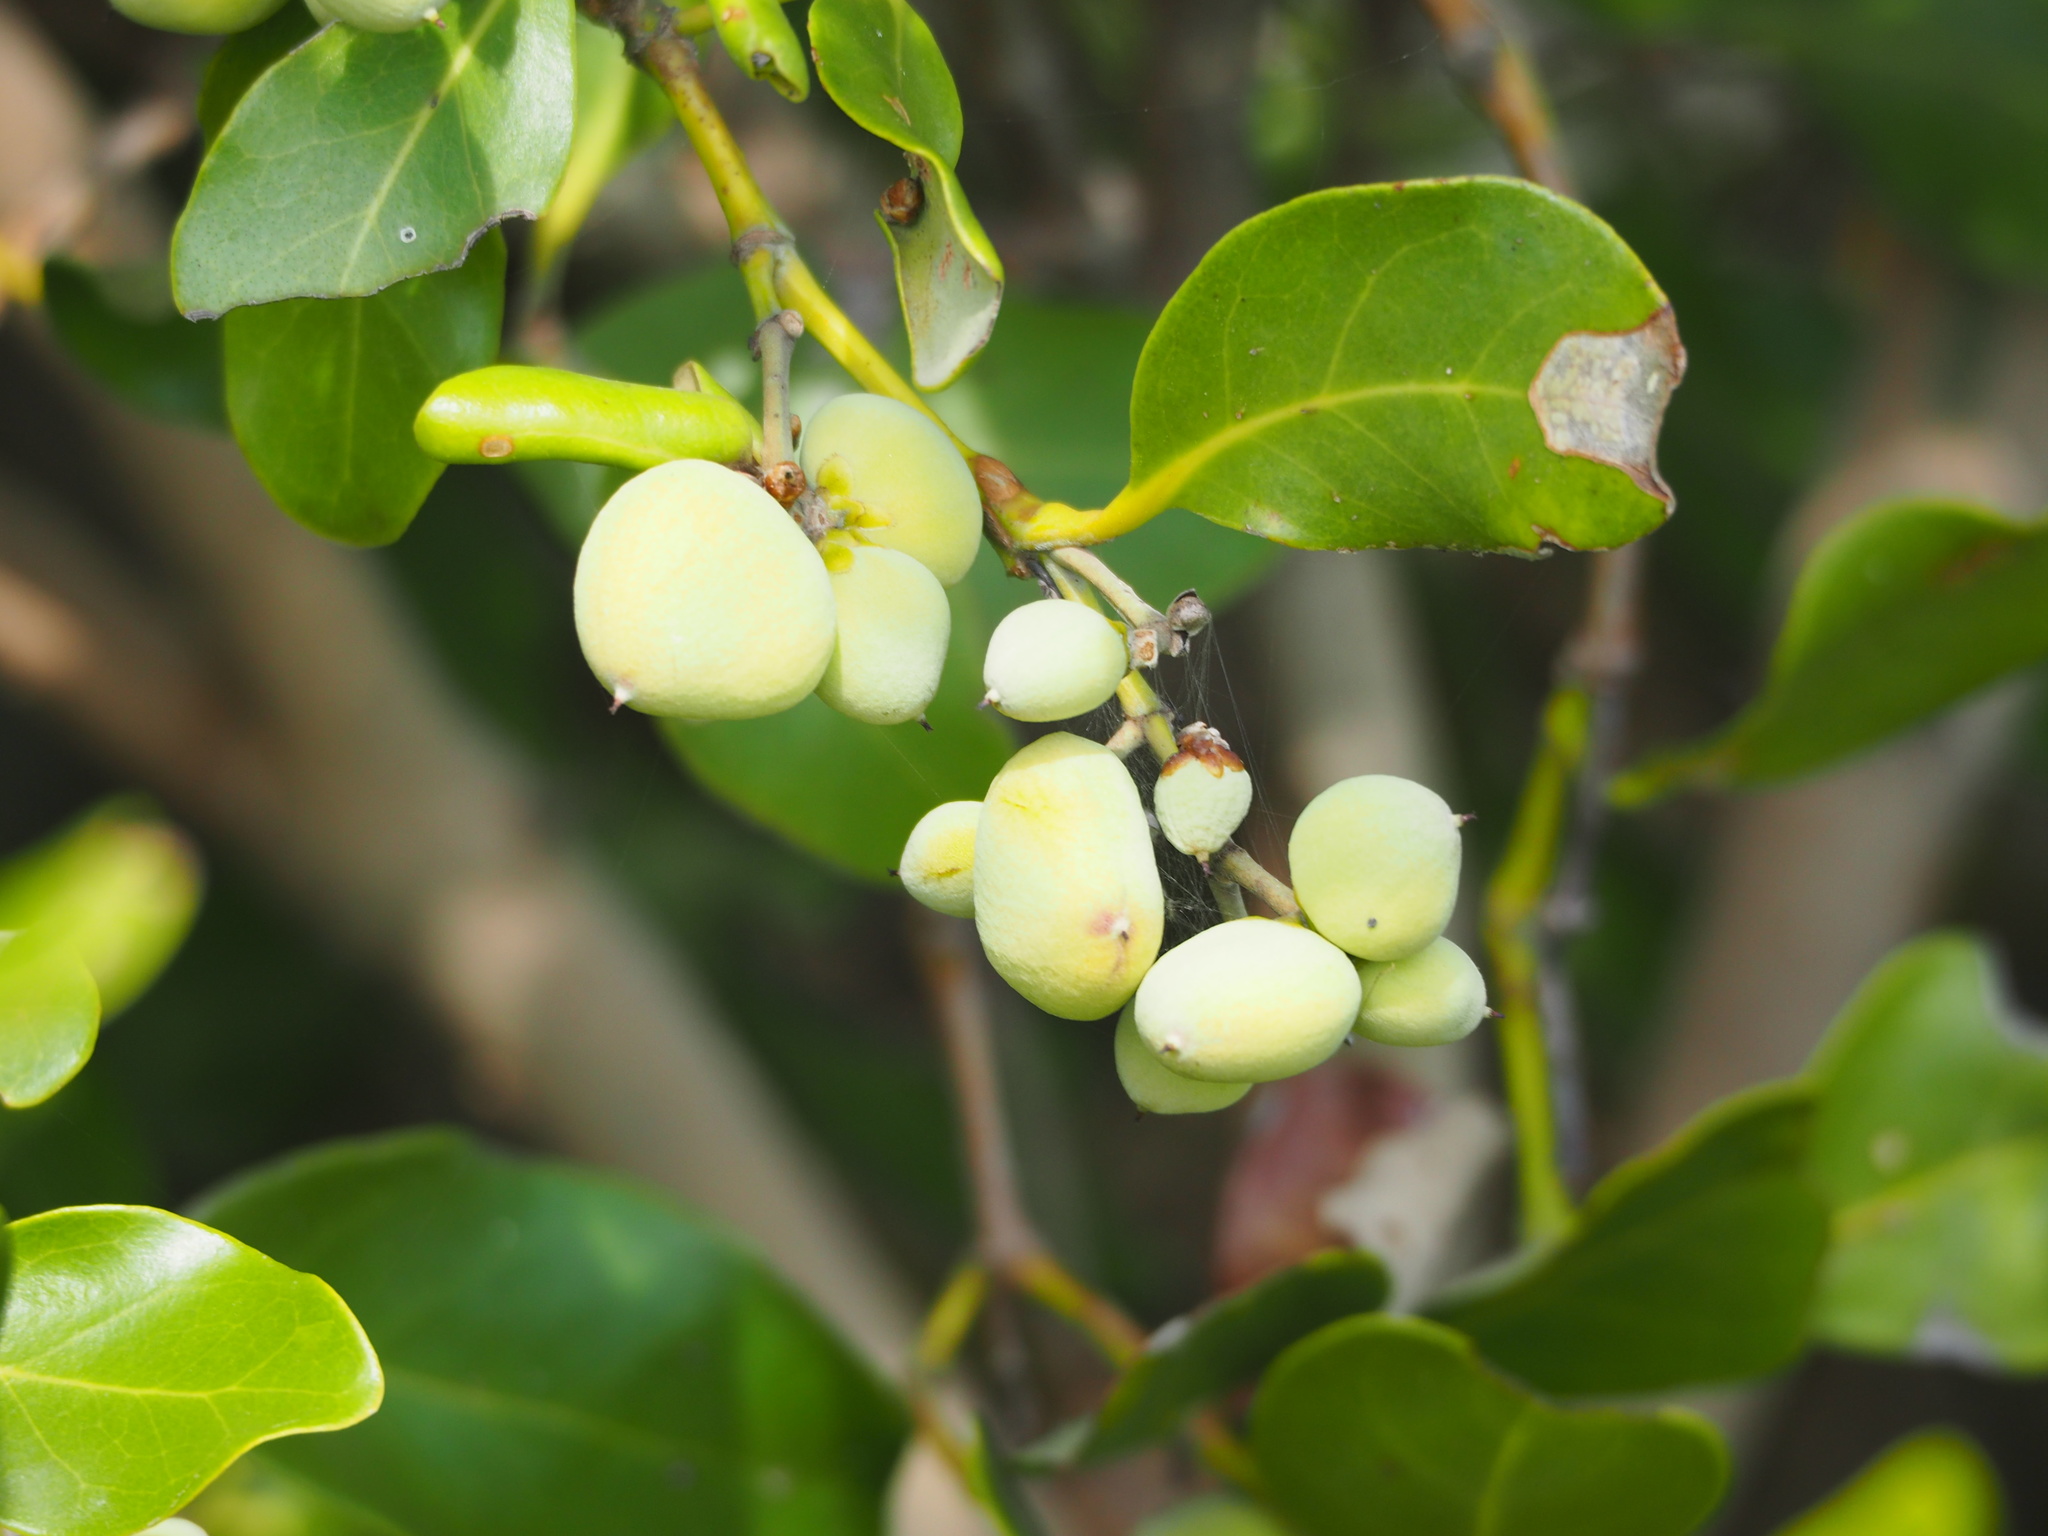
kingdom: Plantae
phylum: Tracheophyta
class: Magnoliopsida
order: Lamiales
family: Acanthaceae
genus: Avicennia
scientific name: Avicennia marina
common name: Gray mangrove
